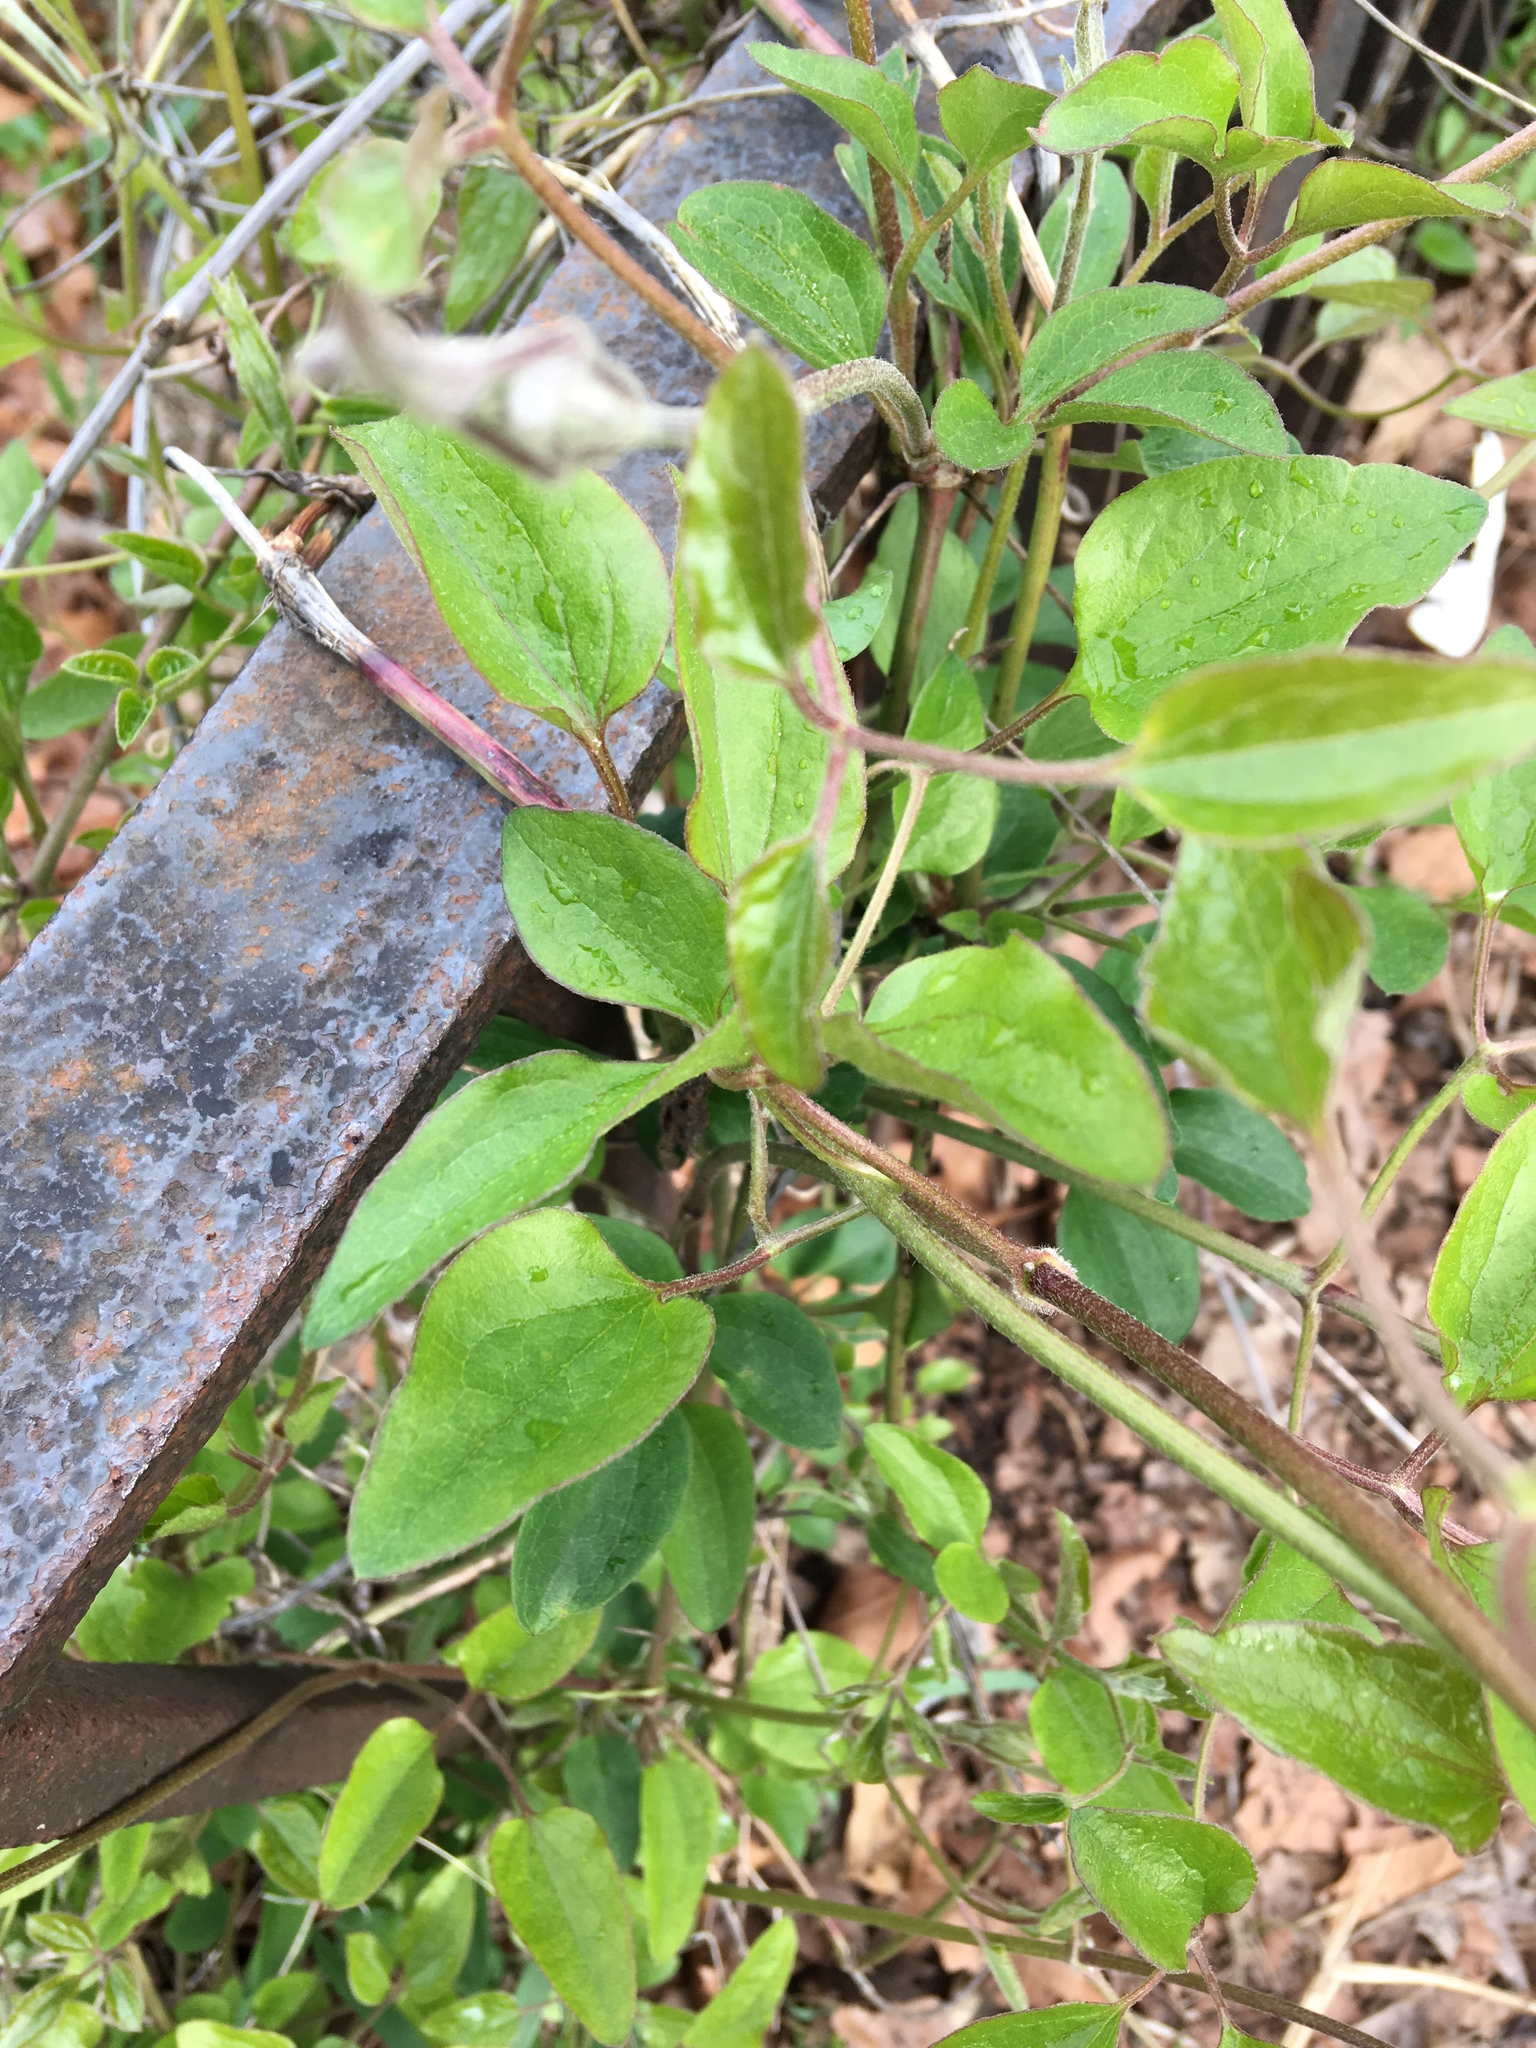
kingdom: Plantae
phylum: Tracheophyta
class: Magnoliopsida
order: Ranunculales
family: Ranunculaceae
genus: Clematis
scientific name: Clematis terniflora
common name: Sweet autumn clematis
